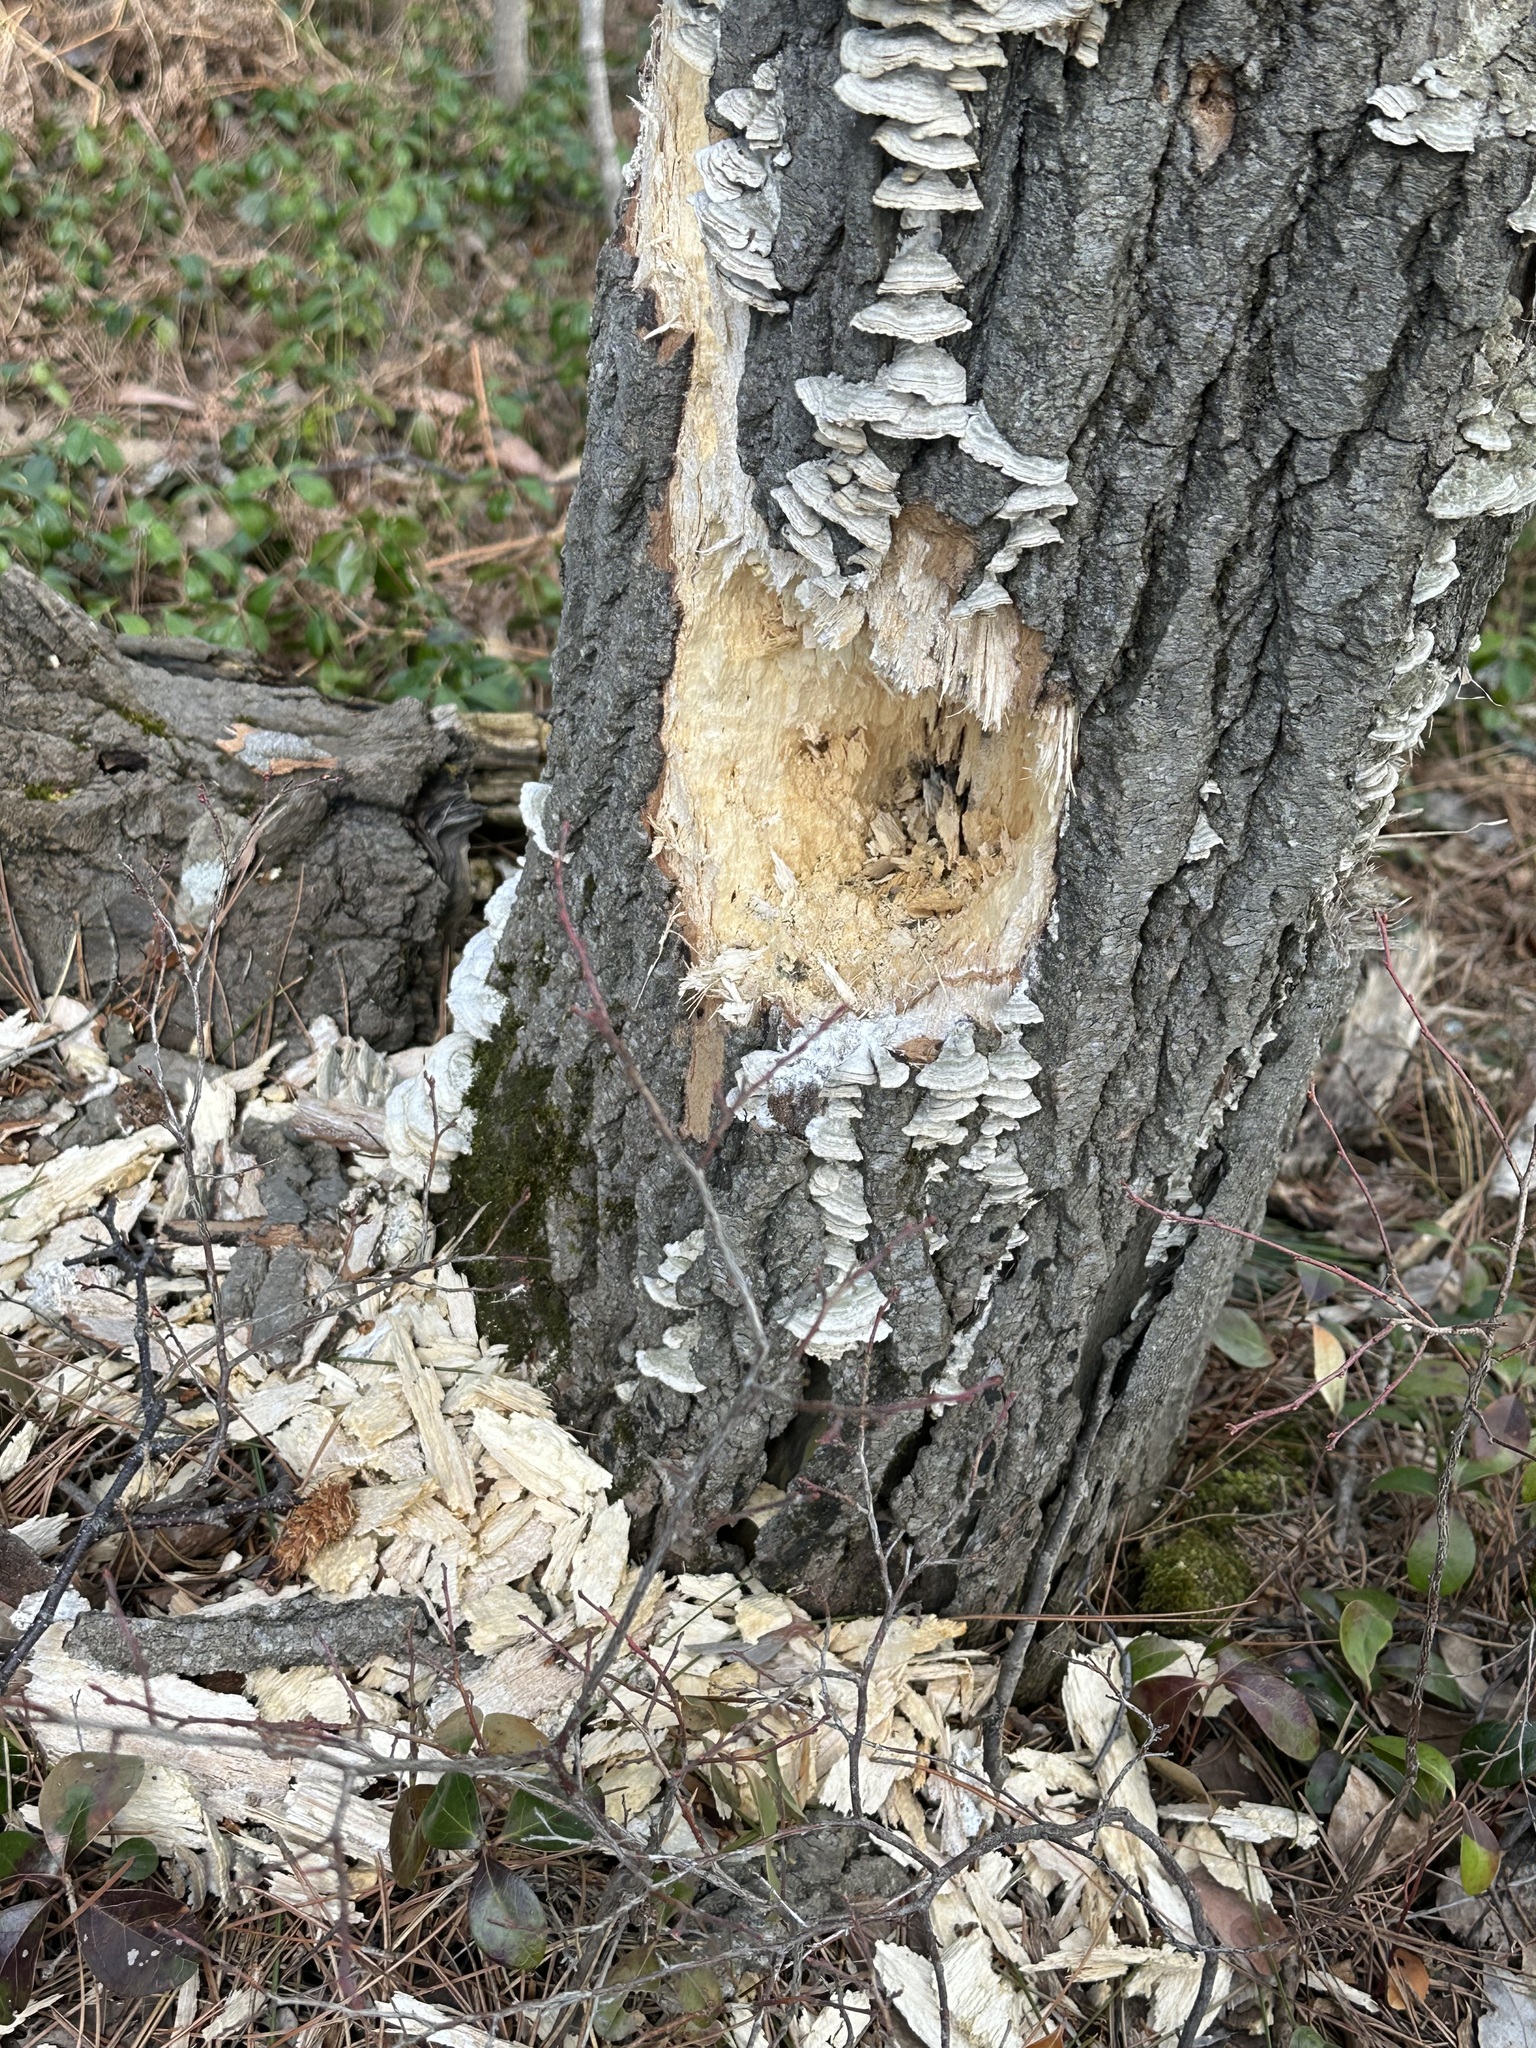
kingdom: Animalia
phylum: Chordata
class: Aves
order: Piciformes
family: Picidae
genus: Dryocopus
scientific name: Dryocopus pileatus
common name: Pileated woodpecker
